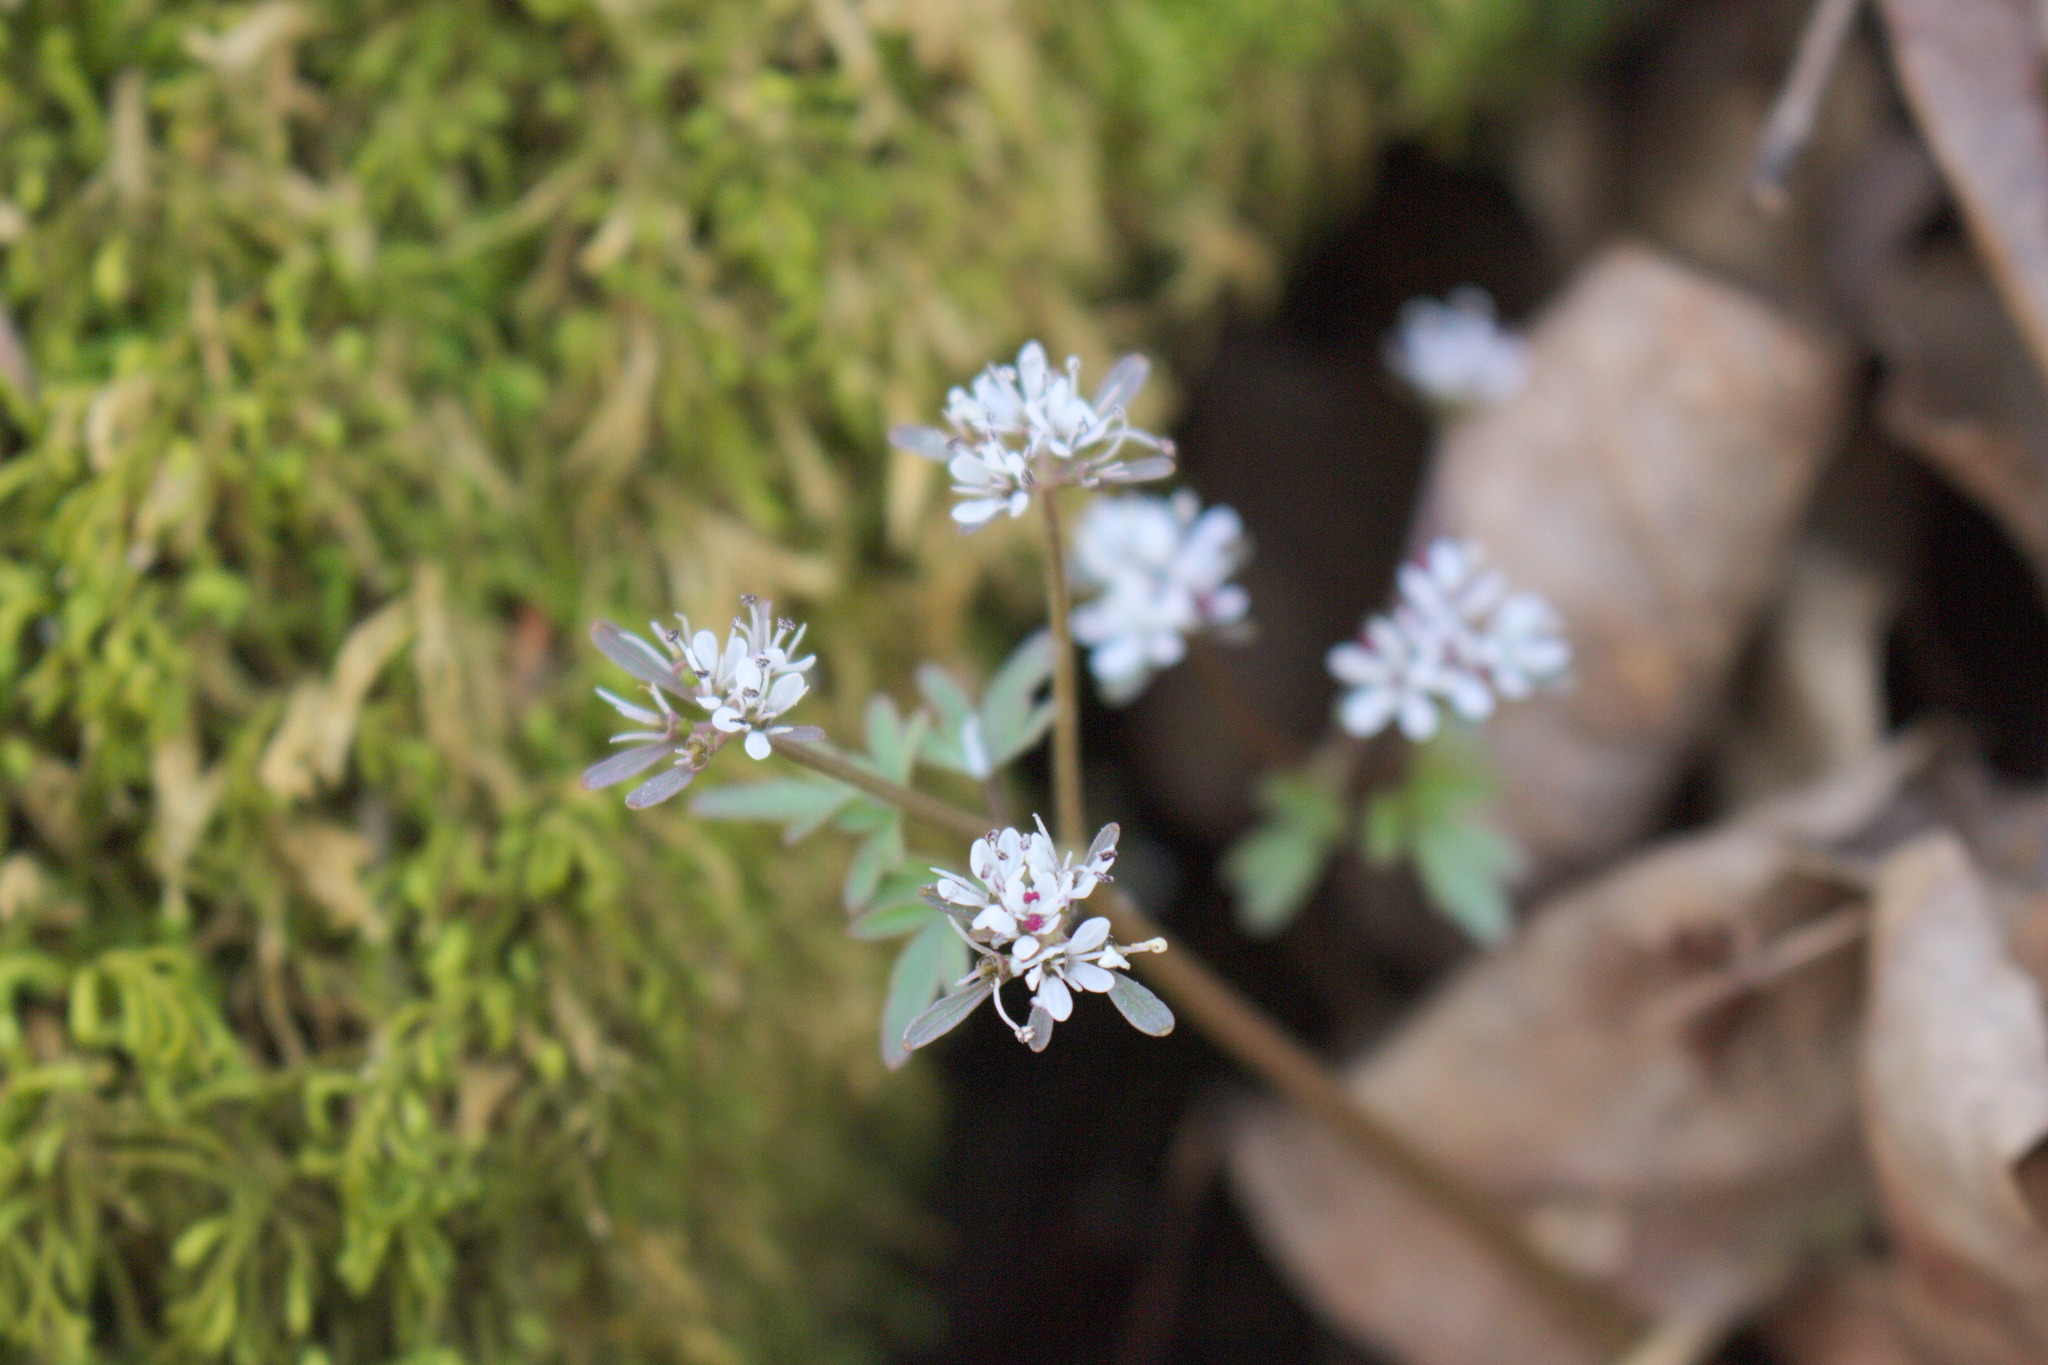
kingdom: Plantae
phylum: Tracheophyta
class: Magnoliopsida
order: Apiales
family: Apiaceae
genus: Erigenia
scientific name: Erigenia bulbosa
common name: Pepper-and-salt
